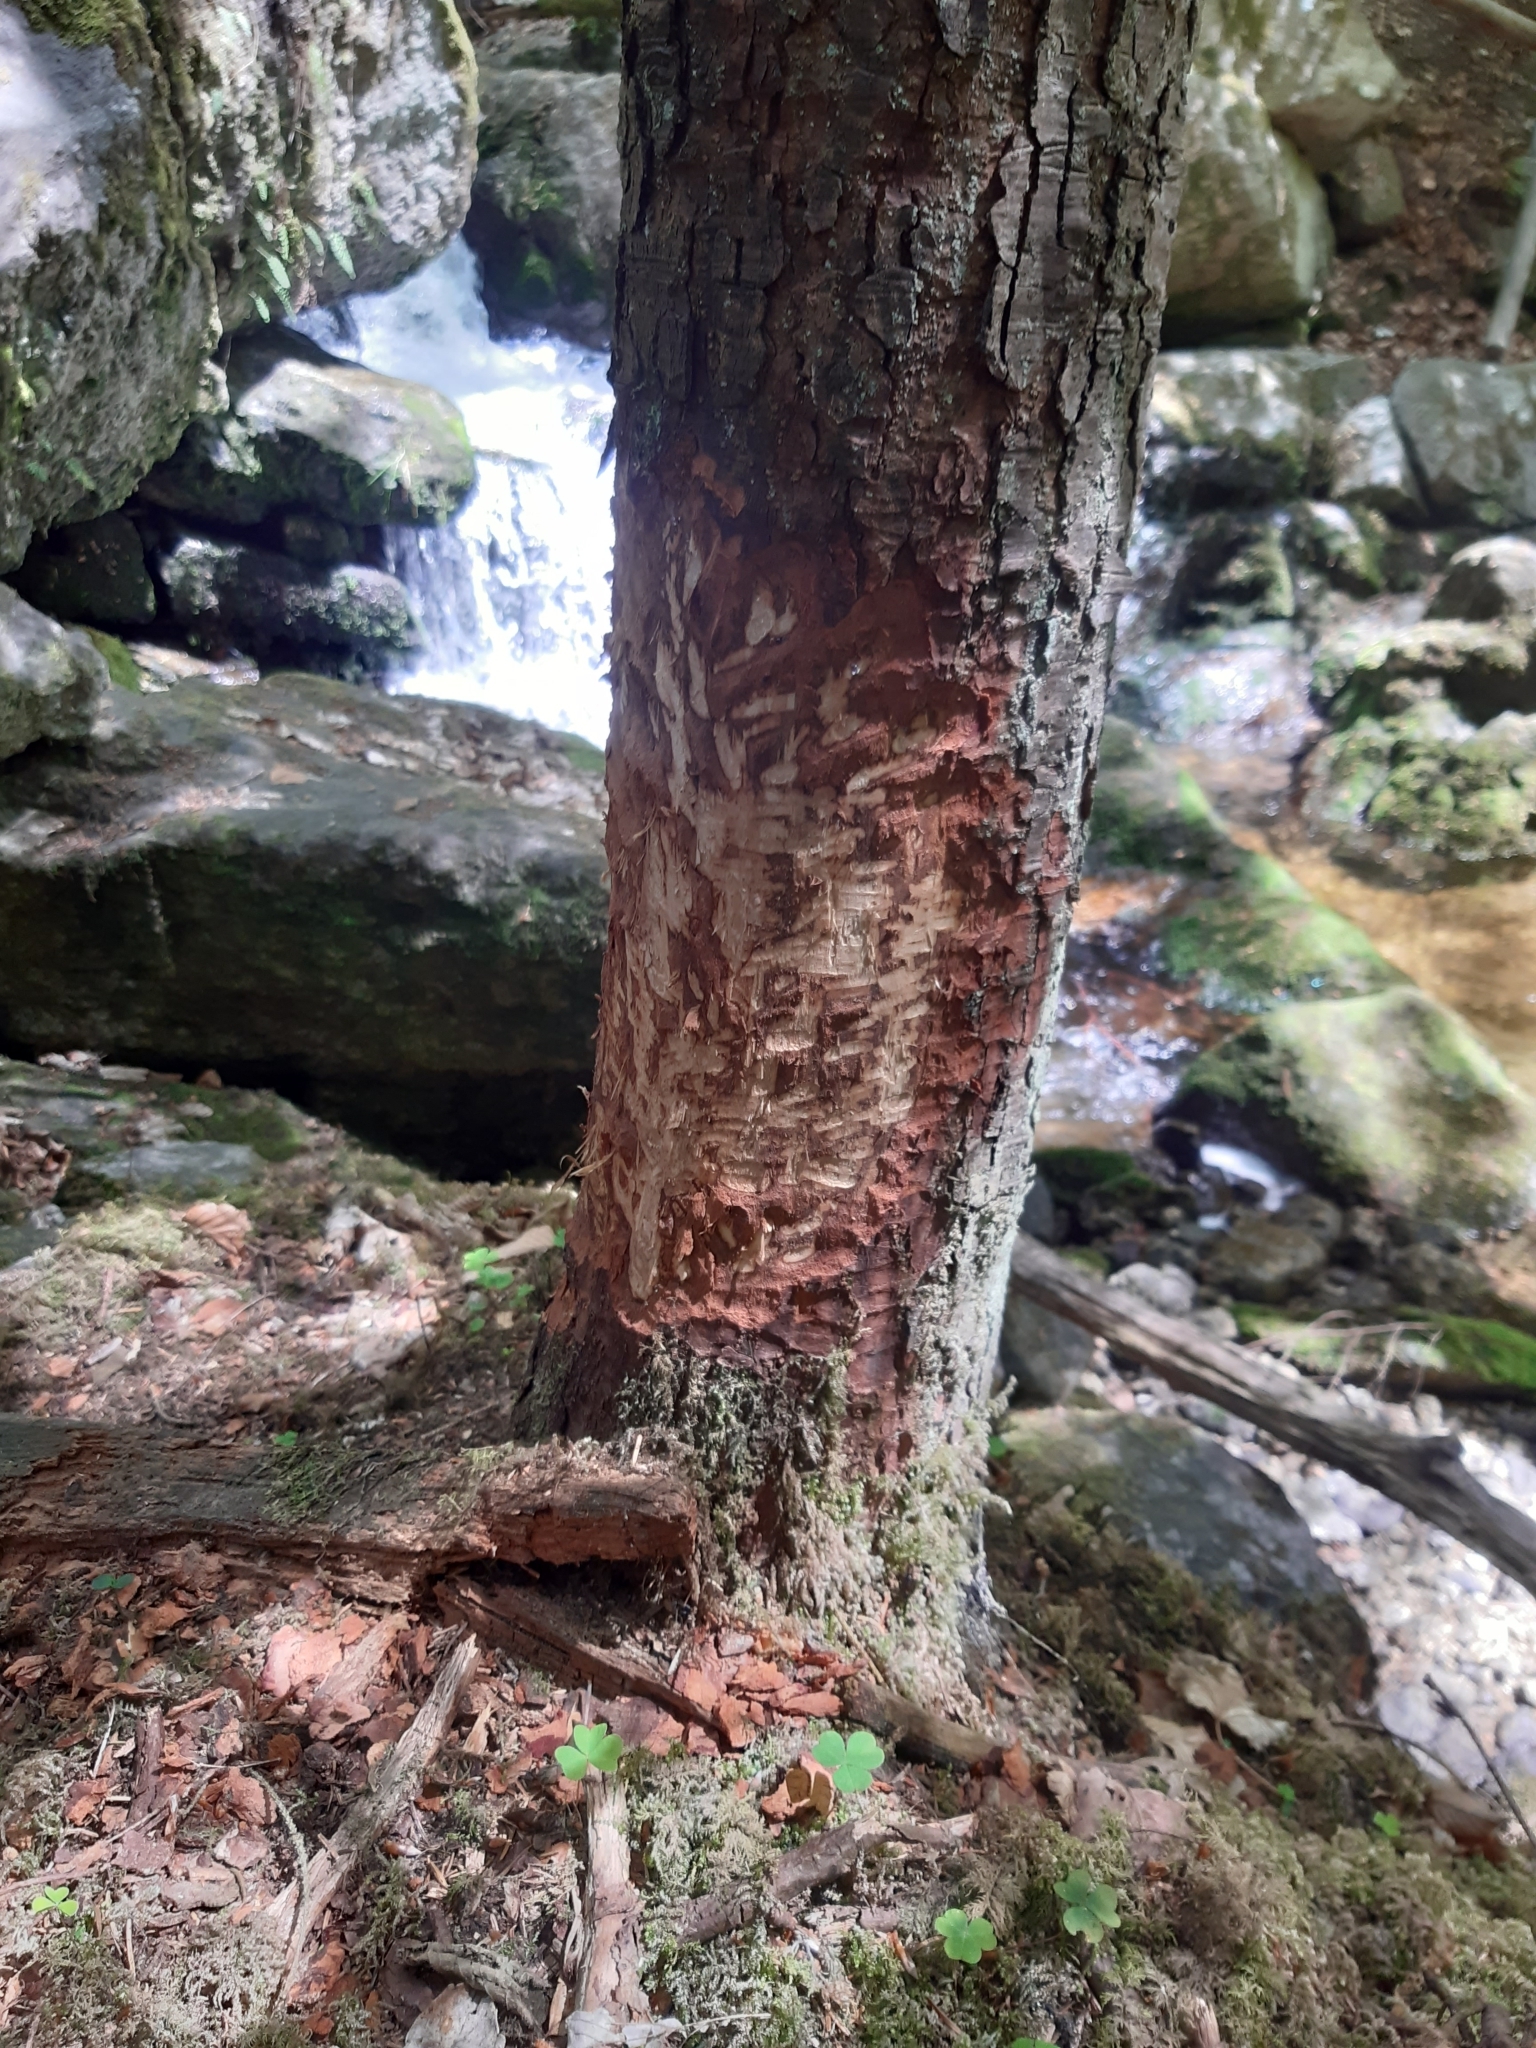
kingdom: Animalia
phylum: Chordata
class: Mammalia
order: Rodentia
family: Castoridae
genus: Castor
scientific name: Castor fiber
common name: Eurasian beaver
